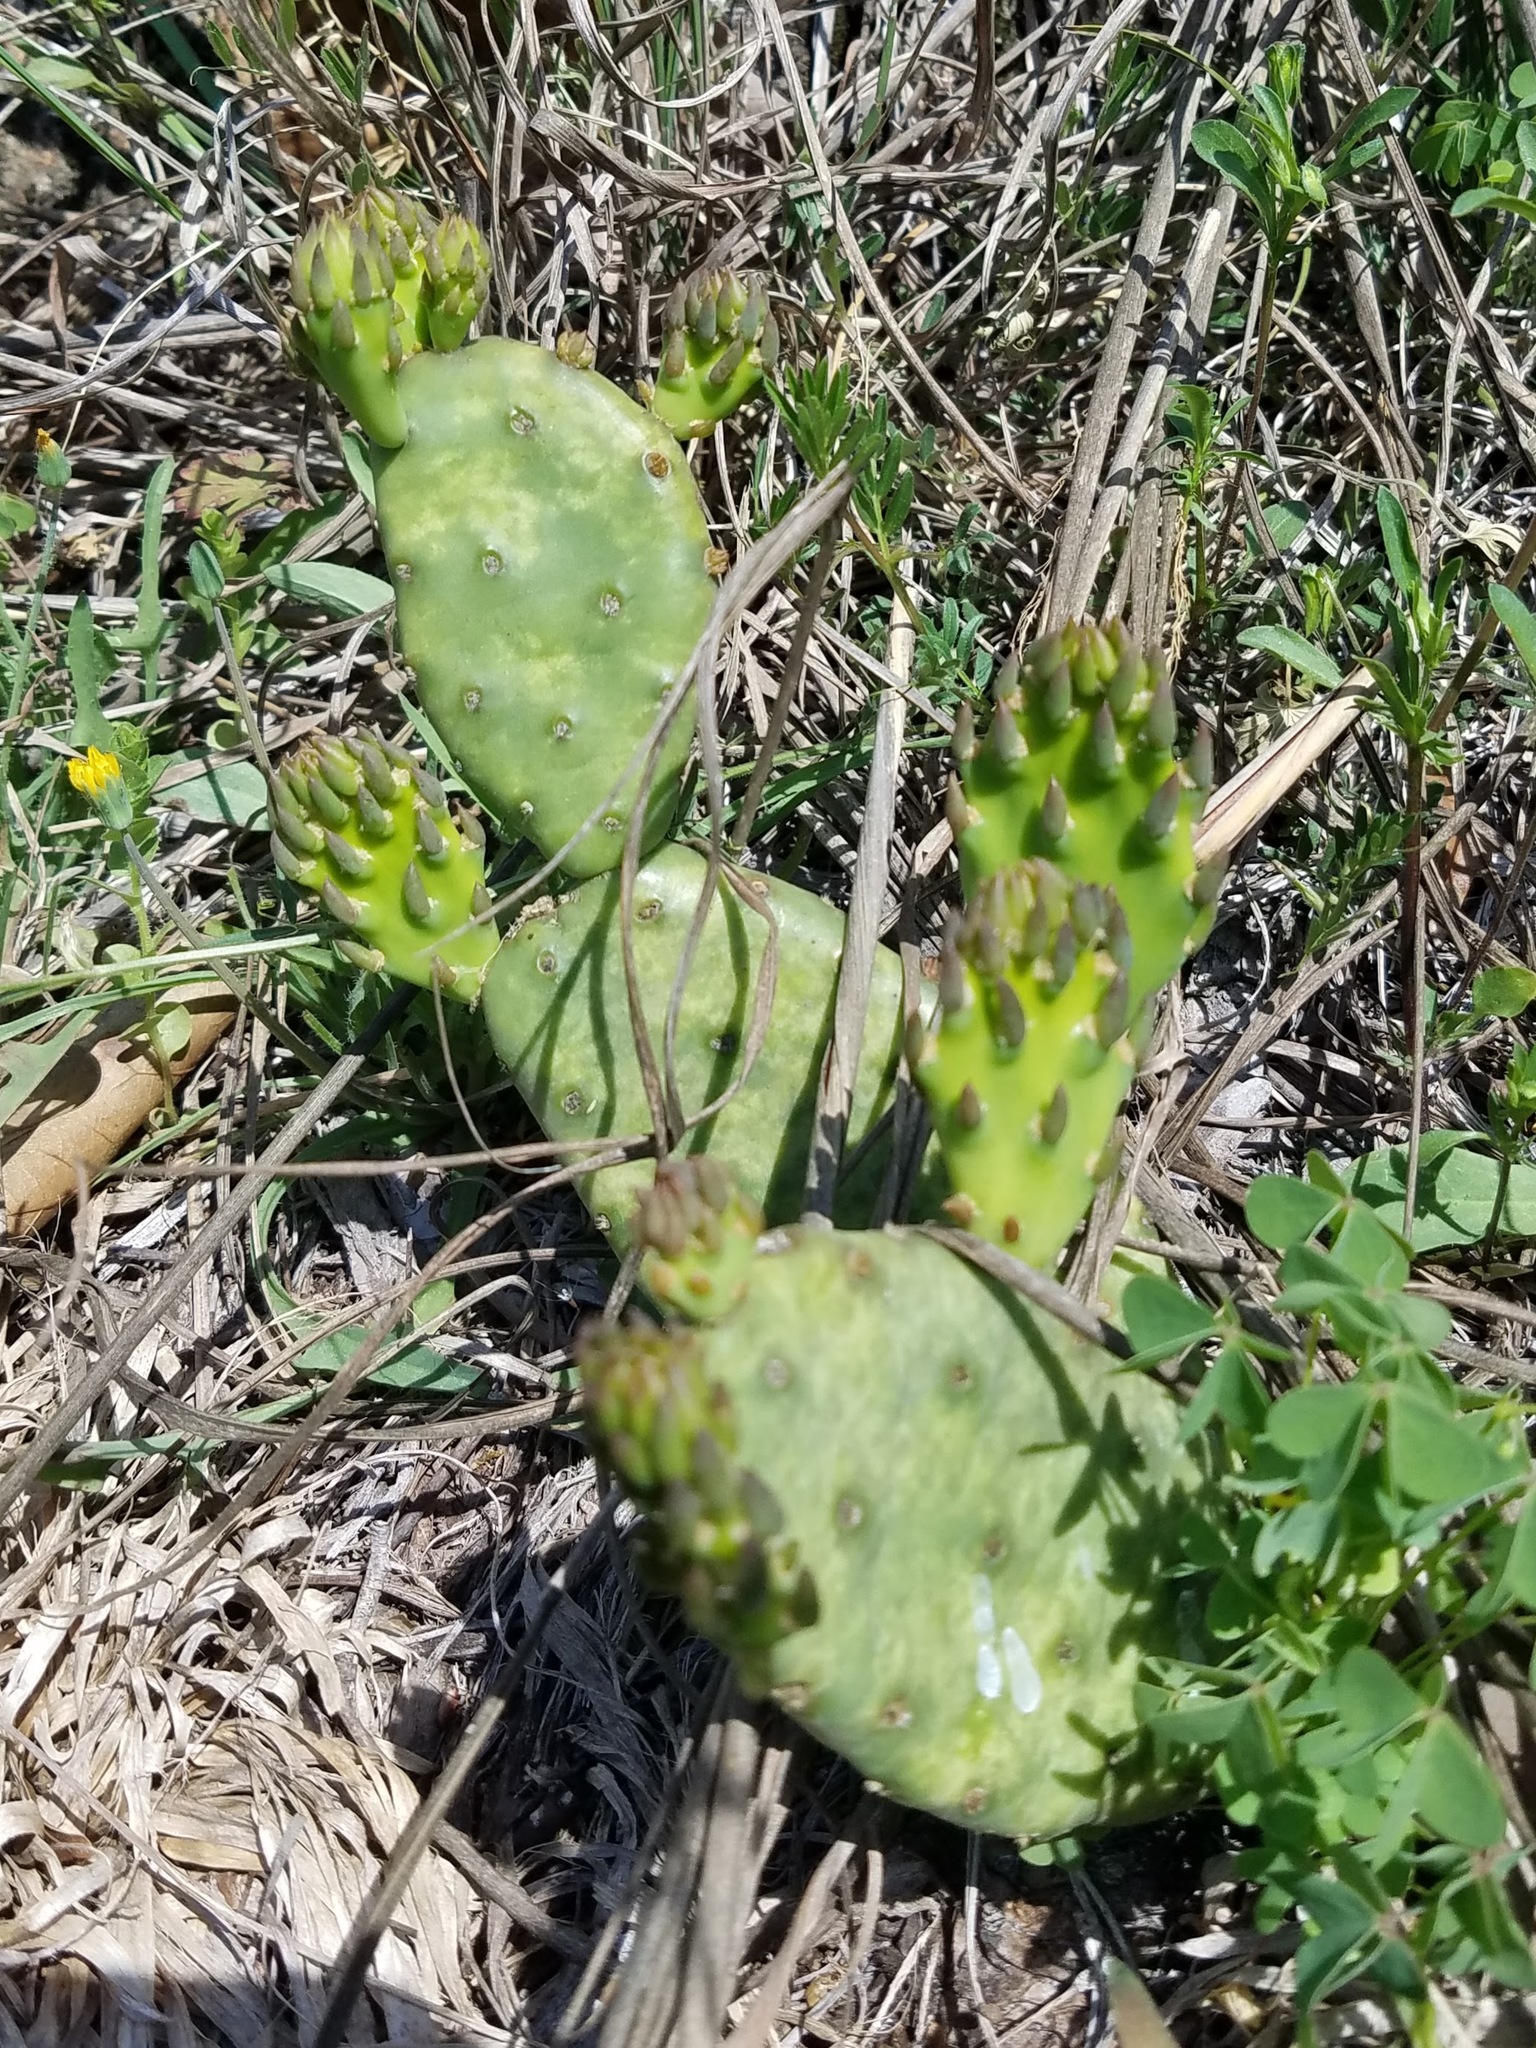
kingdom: Plantae
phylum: Tracheophyta
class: Magnoliopsida
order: Caryophyllales
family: Cactaceae
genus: Opuntia
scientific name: Opuntia humifusa
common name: Eastern prickly-pear
